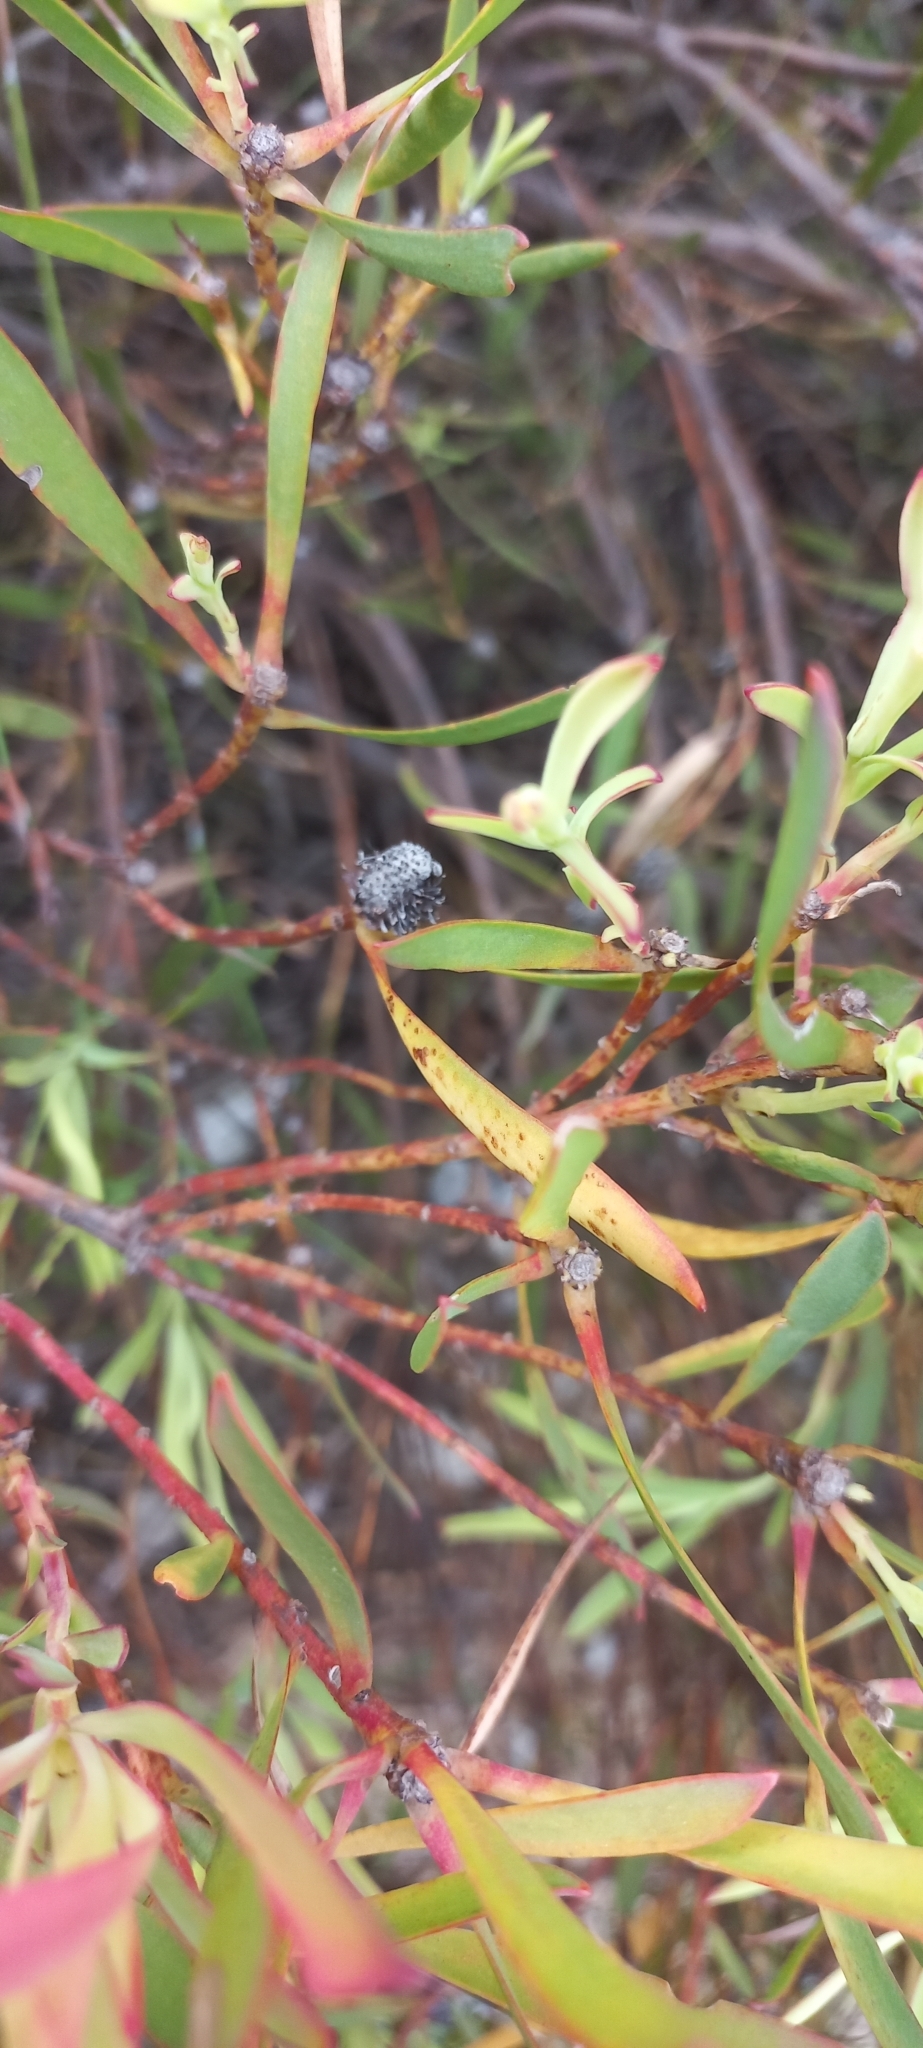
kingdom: Plantae
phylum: Tracheophyta
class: Magnoliopsida
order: Proteales
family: Proteaceae
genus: Leucadendron
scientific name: Leucadendron salignum
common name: Common sunshine conebush
